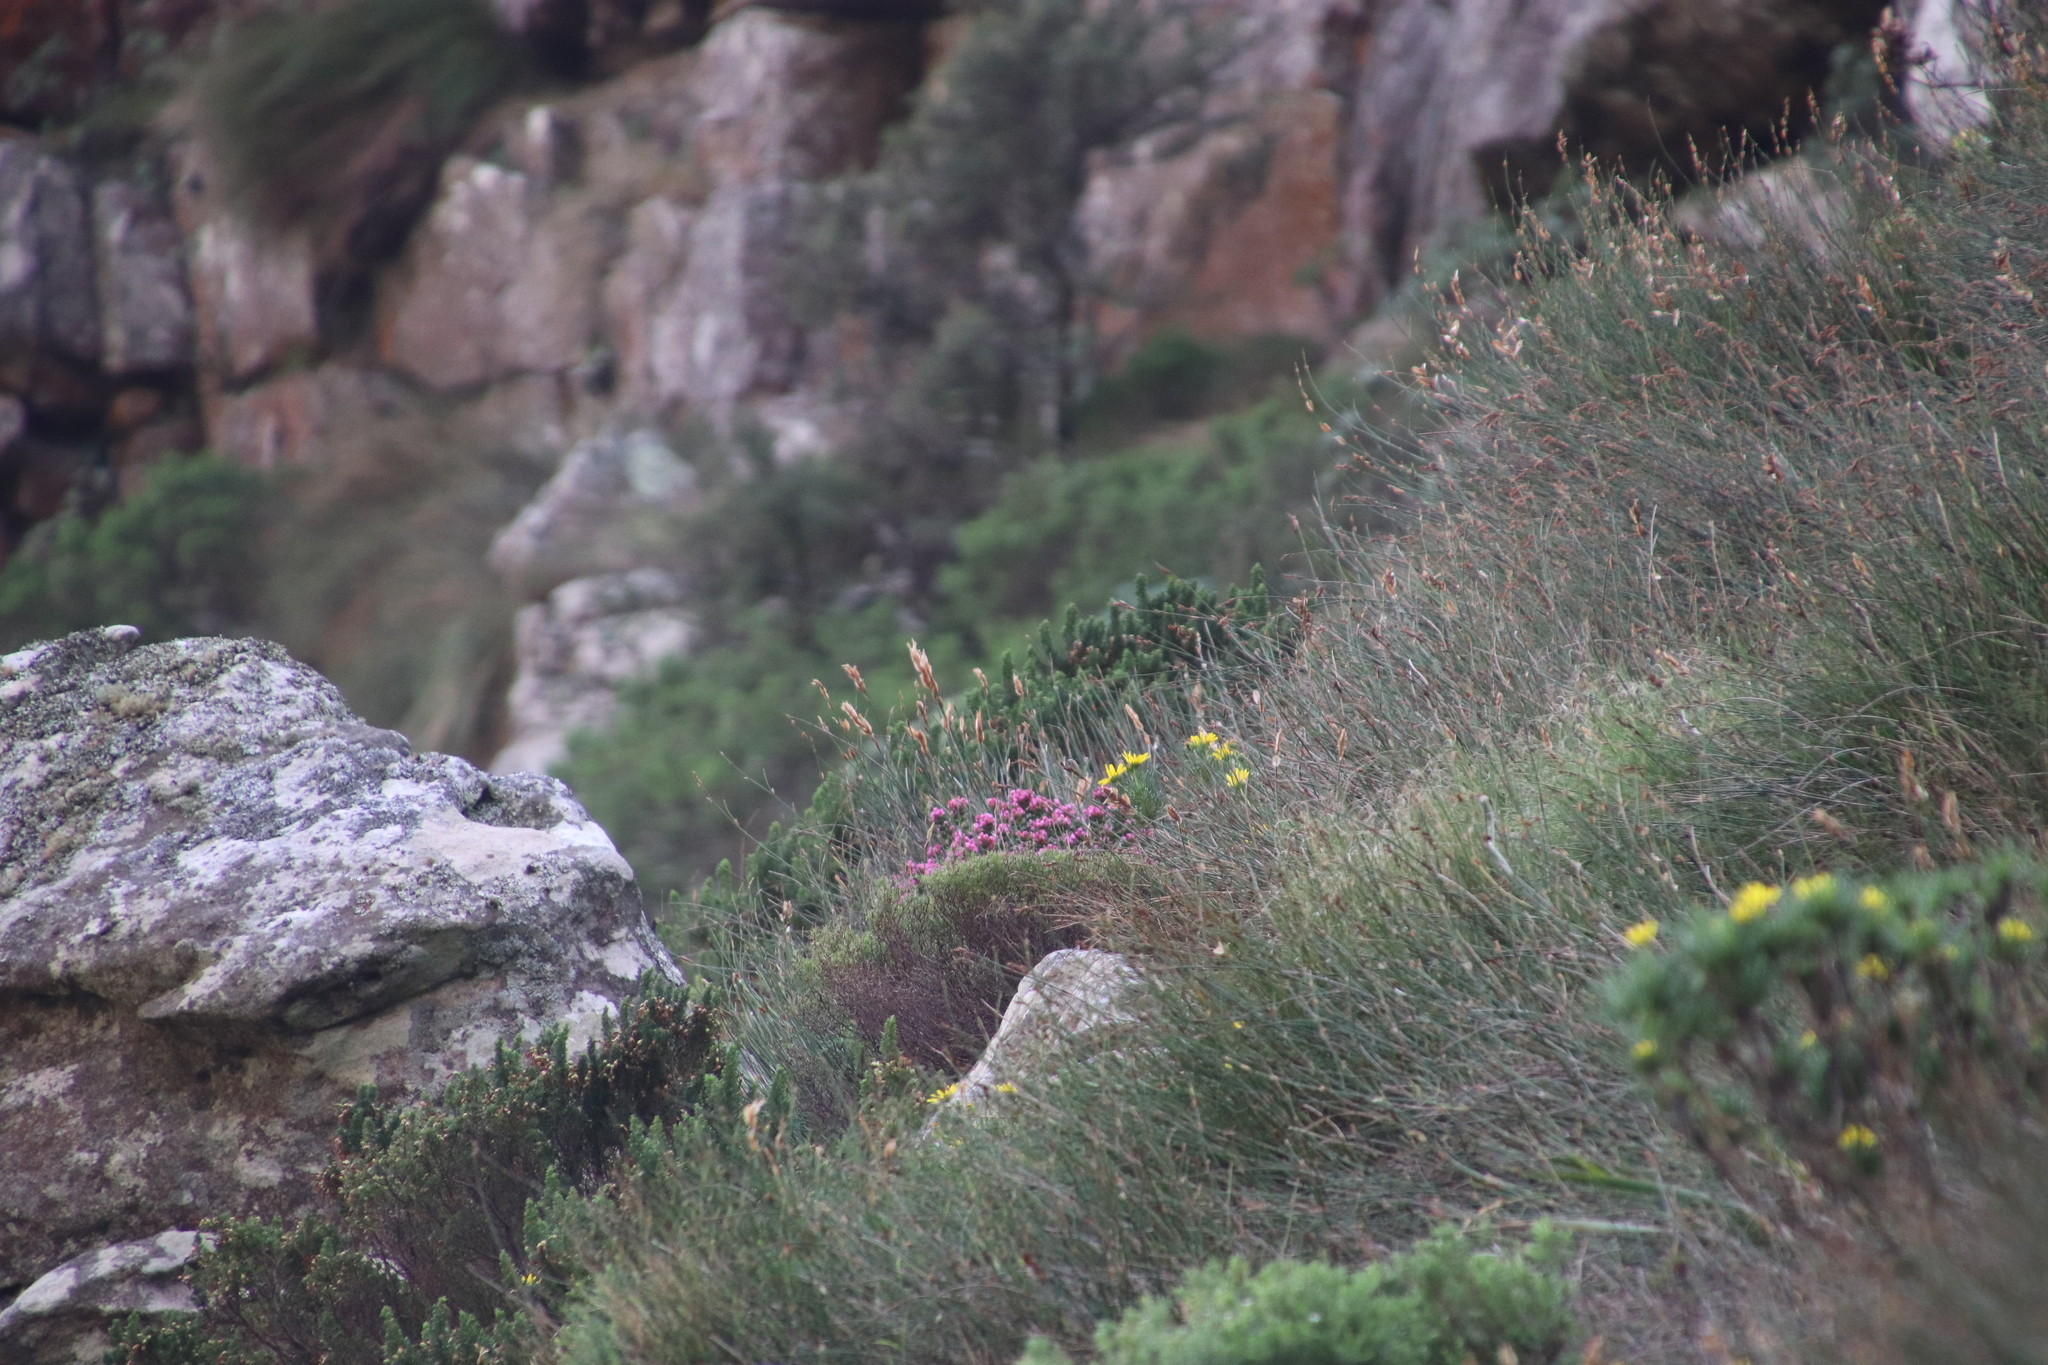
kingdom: Plantae
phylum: Tracheophyta
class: Magnoliopsida
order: Myrtales
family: Penaeaceae
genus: Brachysiphon
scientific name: Brachysiphon fucatus
